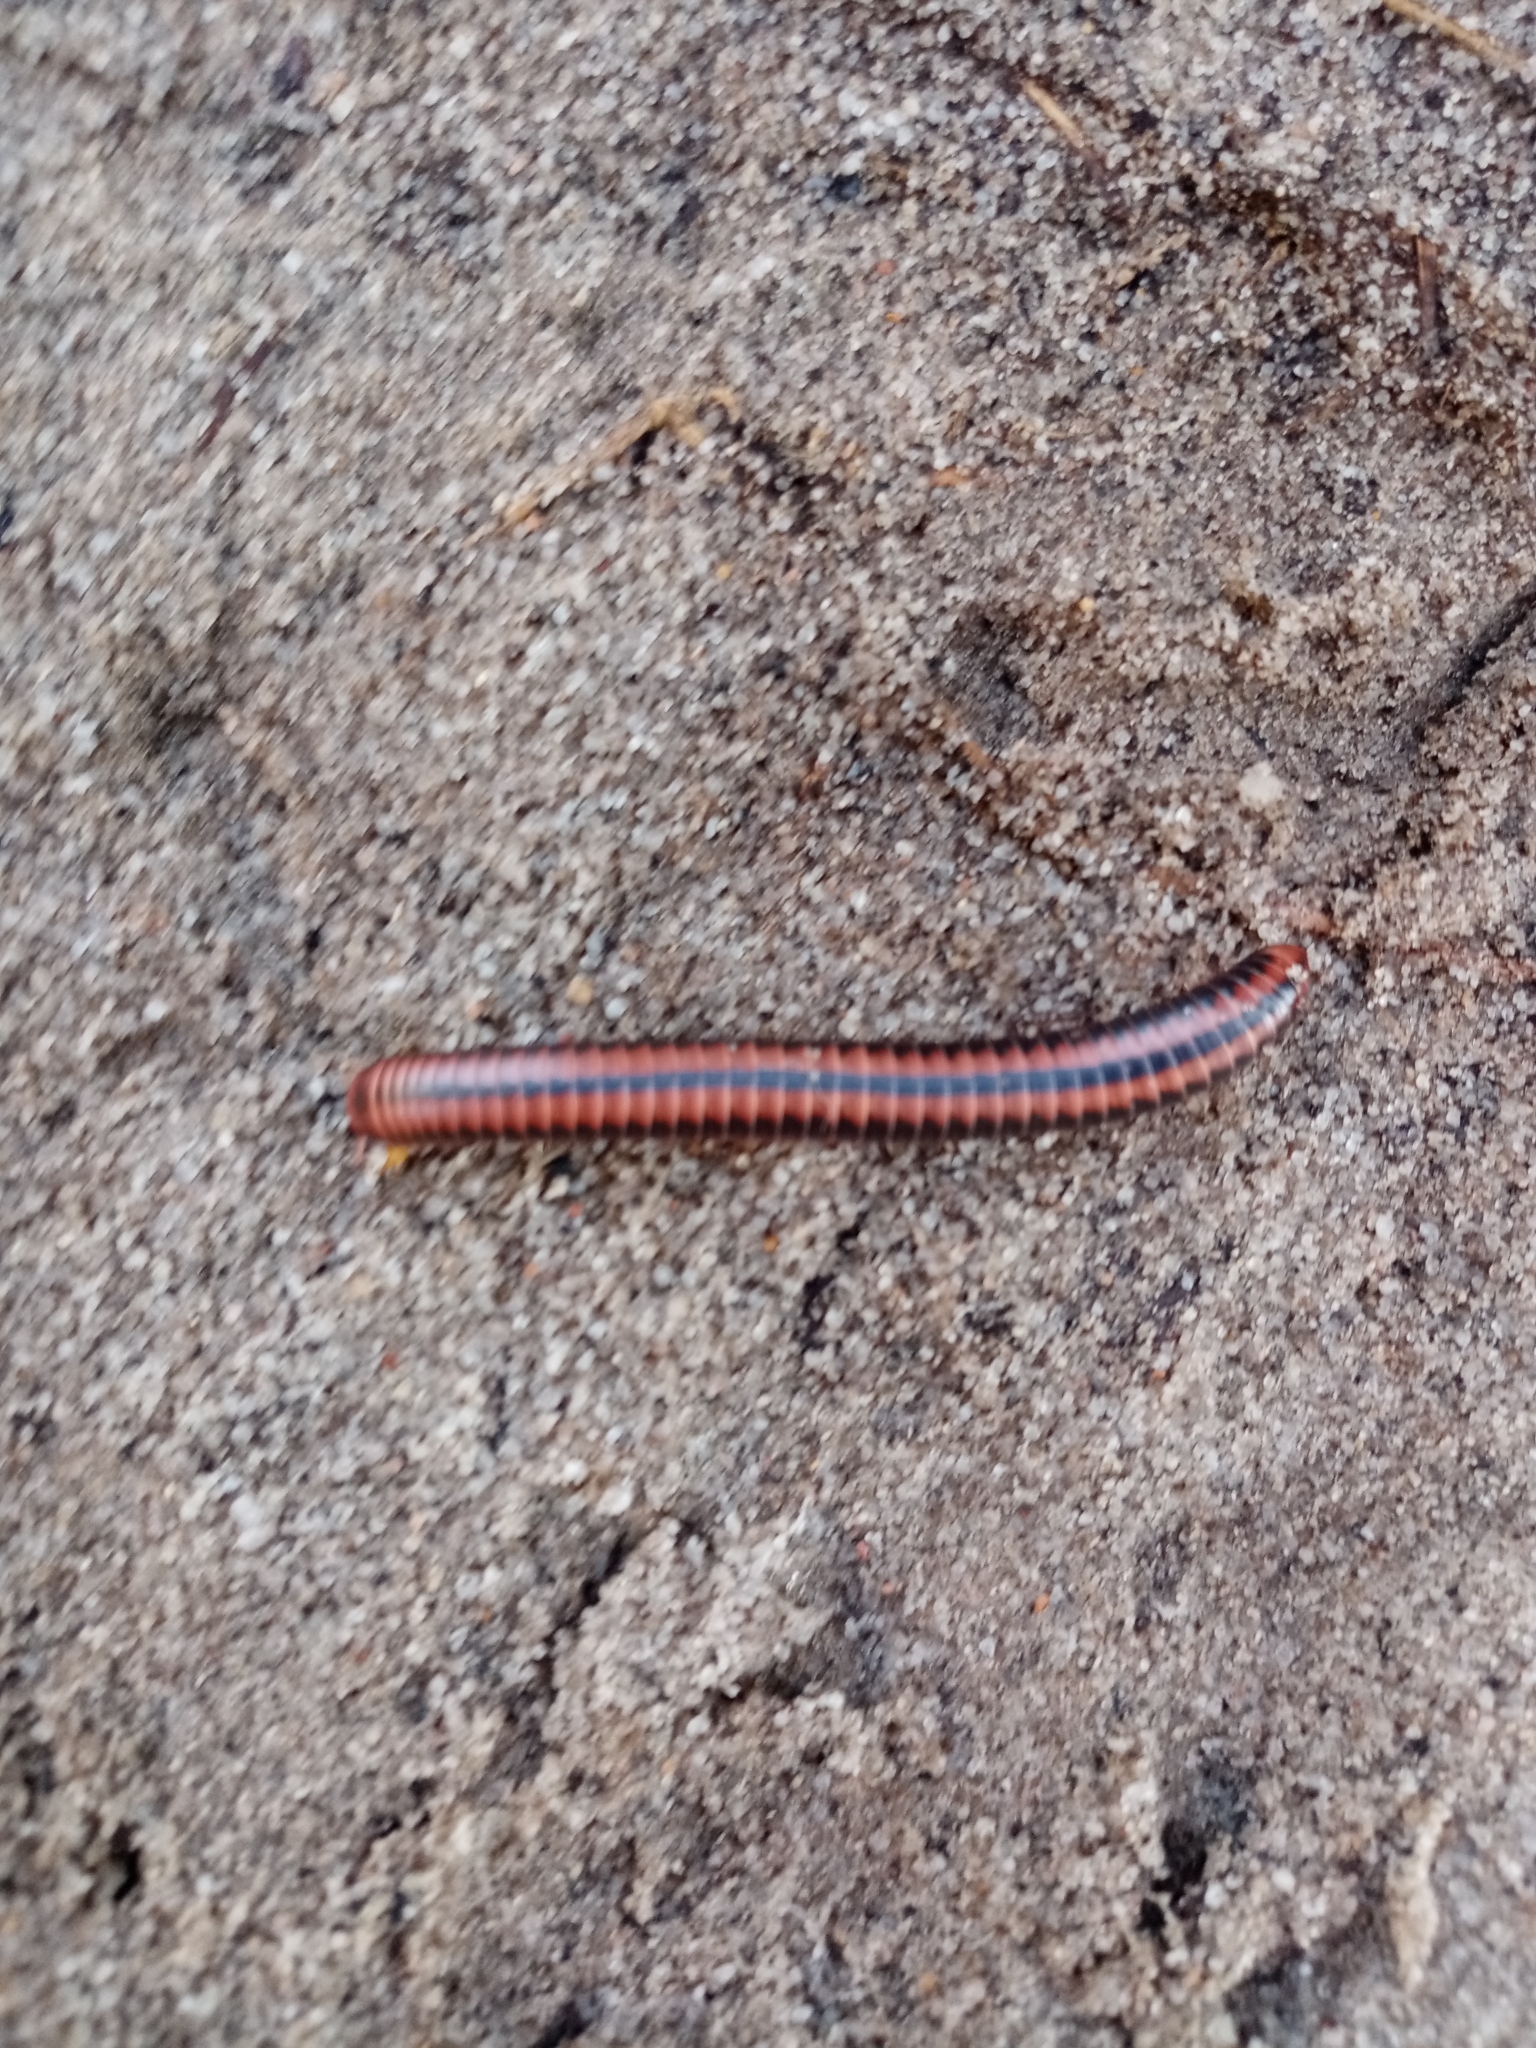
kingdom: Animalia
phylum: Arthropoda
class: Diplopoda
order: Spirobolida
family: Pachybolidae
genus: Centrobolus
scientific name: Centrobolus digrammus
